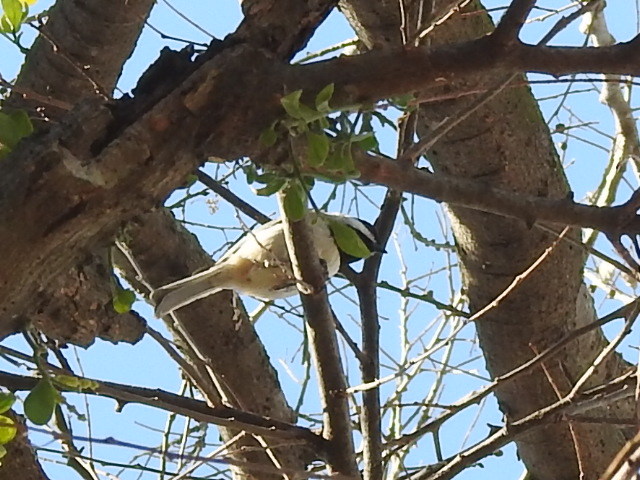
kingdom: Animalia
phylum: Chordata
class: Aves
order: Passeriformes
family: Paridae
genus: Poecile
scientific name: Poecile carolinensis
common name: Carolina chickadee
